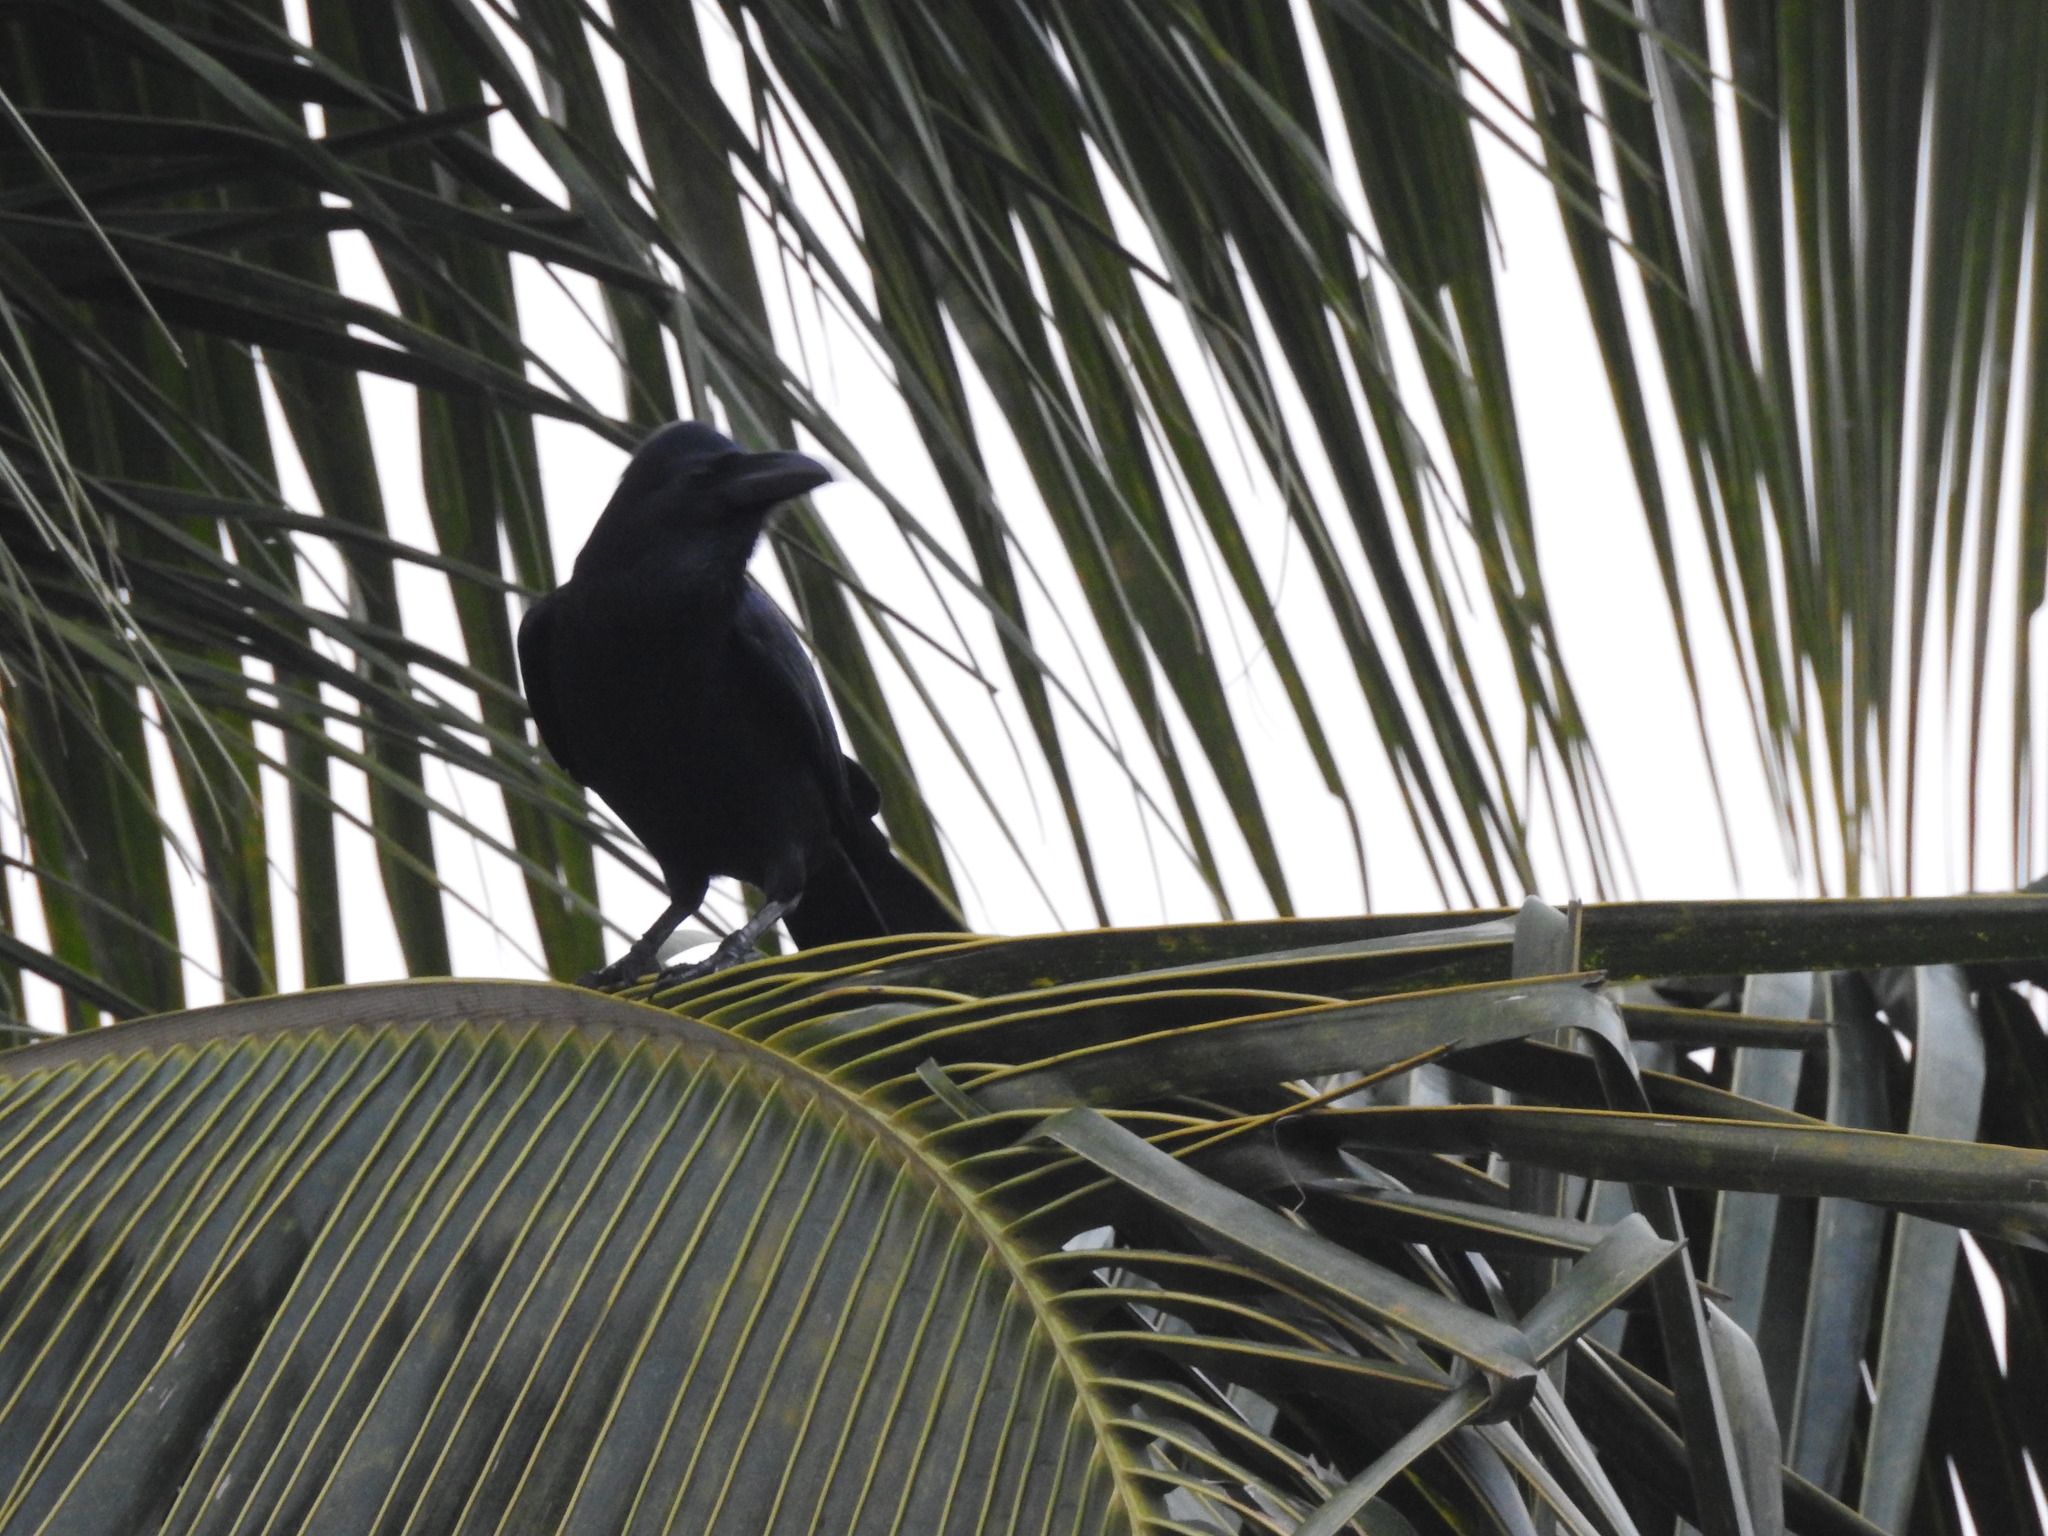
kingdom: Animalia
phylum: Chordata
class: Aves
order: Passeriformes
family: Corvidae
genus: Corvus
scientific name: Corvus macrorhynchos
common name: Large-billed crow
